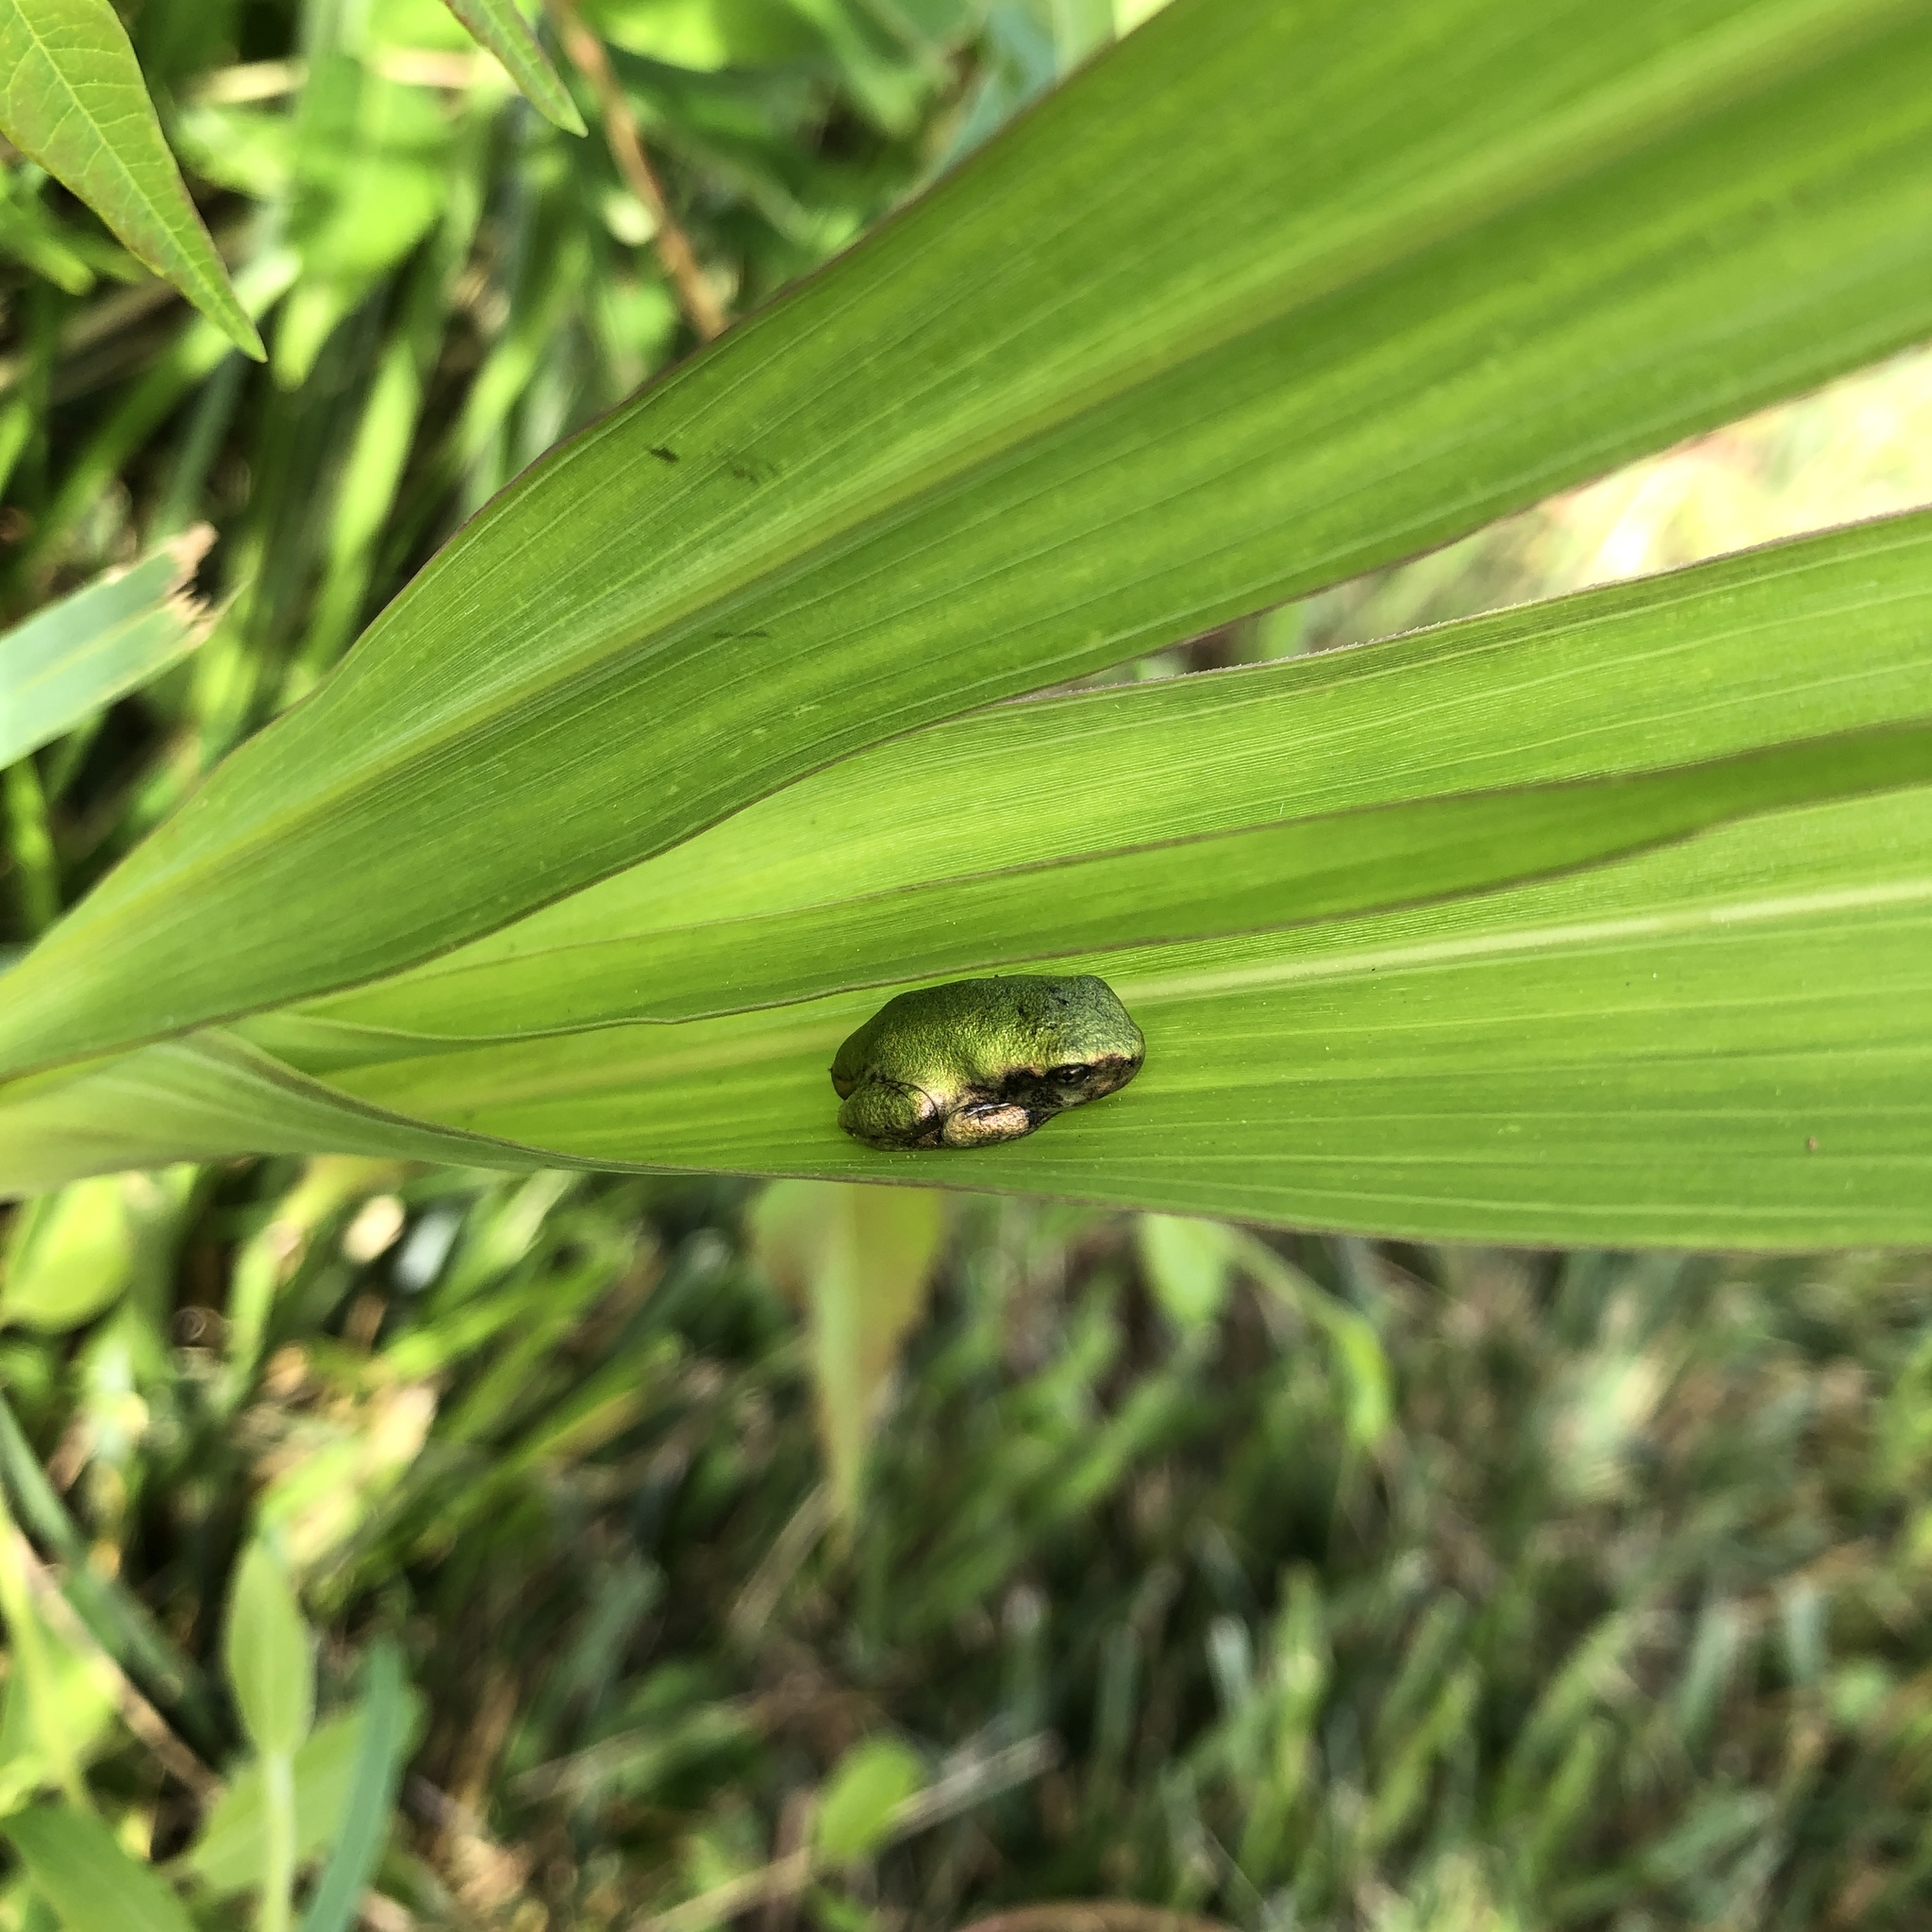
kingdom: Animalia
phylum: Chordata
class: Amphibia
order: Anura
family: Hylidae
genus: Dryophytes
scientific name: Dryophytes chrysoscelis
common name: Cope's gray treefrog
